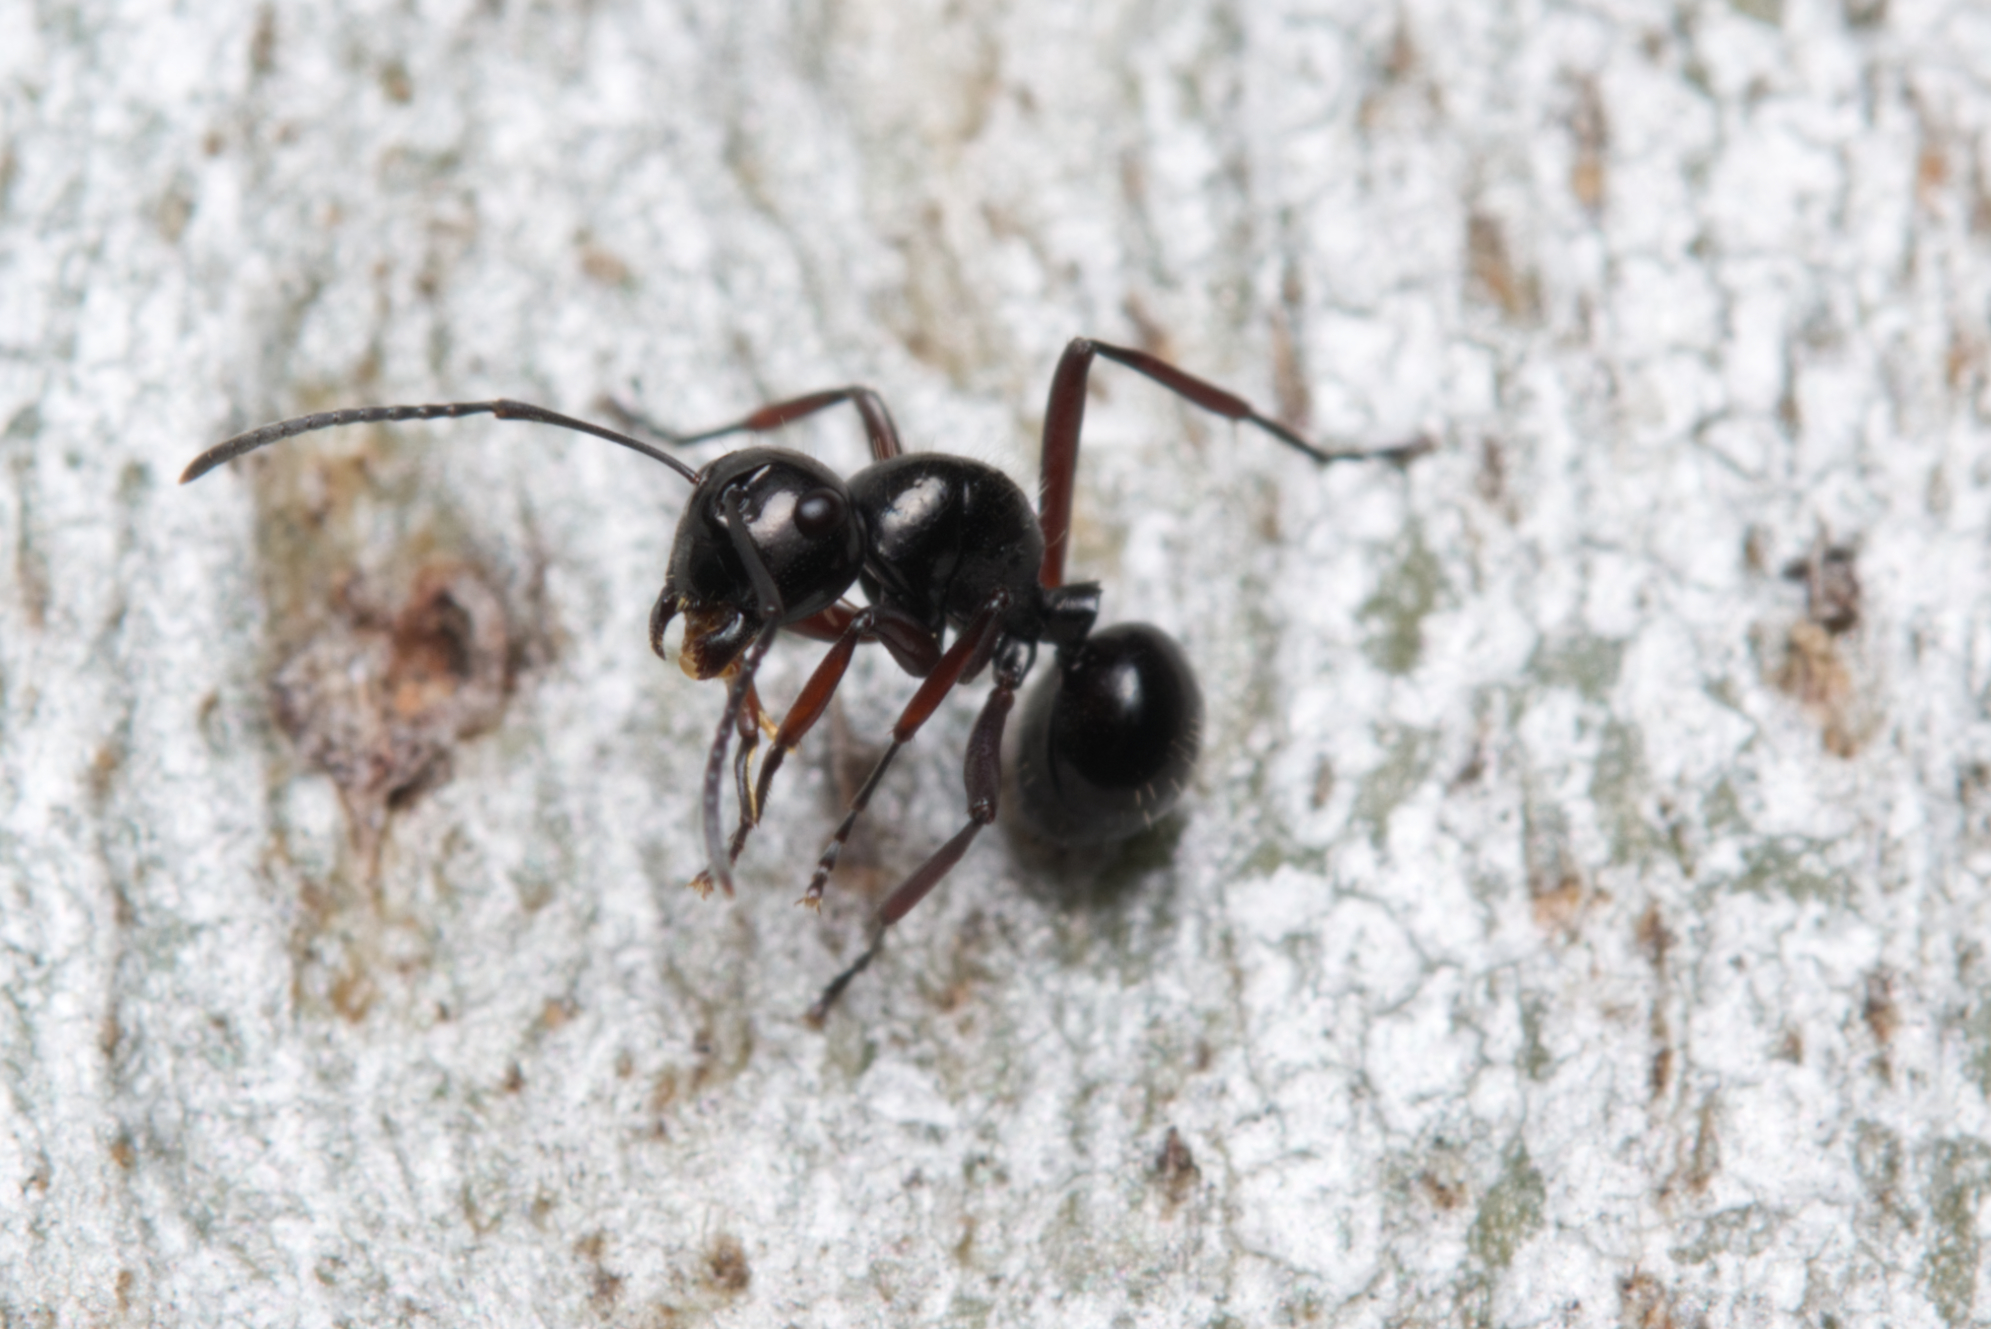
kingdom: Animalia
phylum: Arthropoda
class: Insecta
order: Hymenoptera
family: Formicidae
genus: Polyrhachis
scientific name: Polyrhachis pilosa
